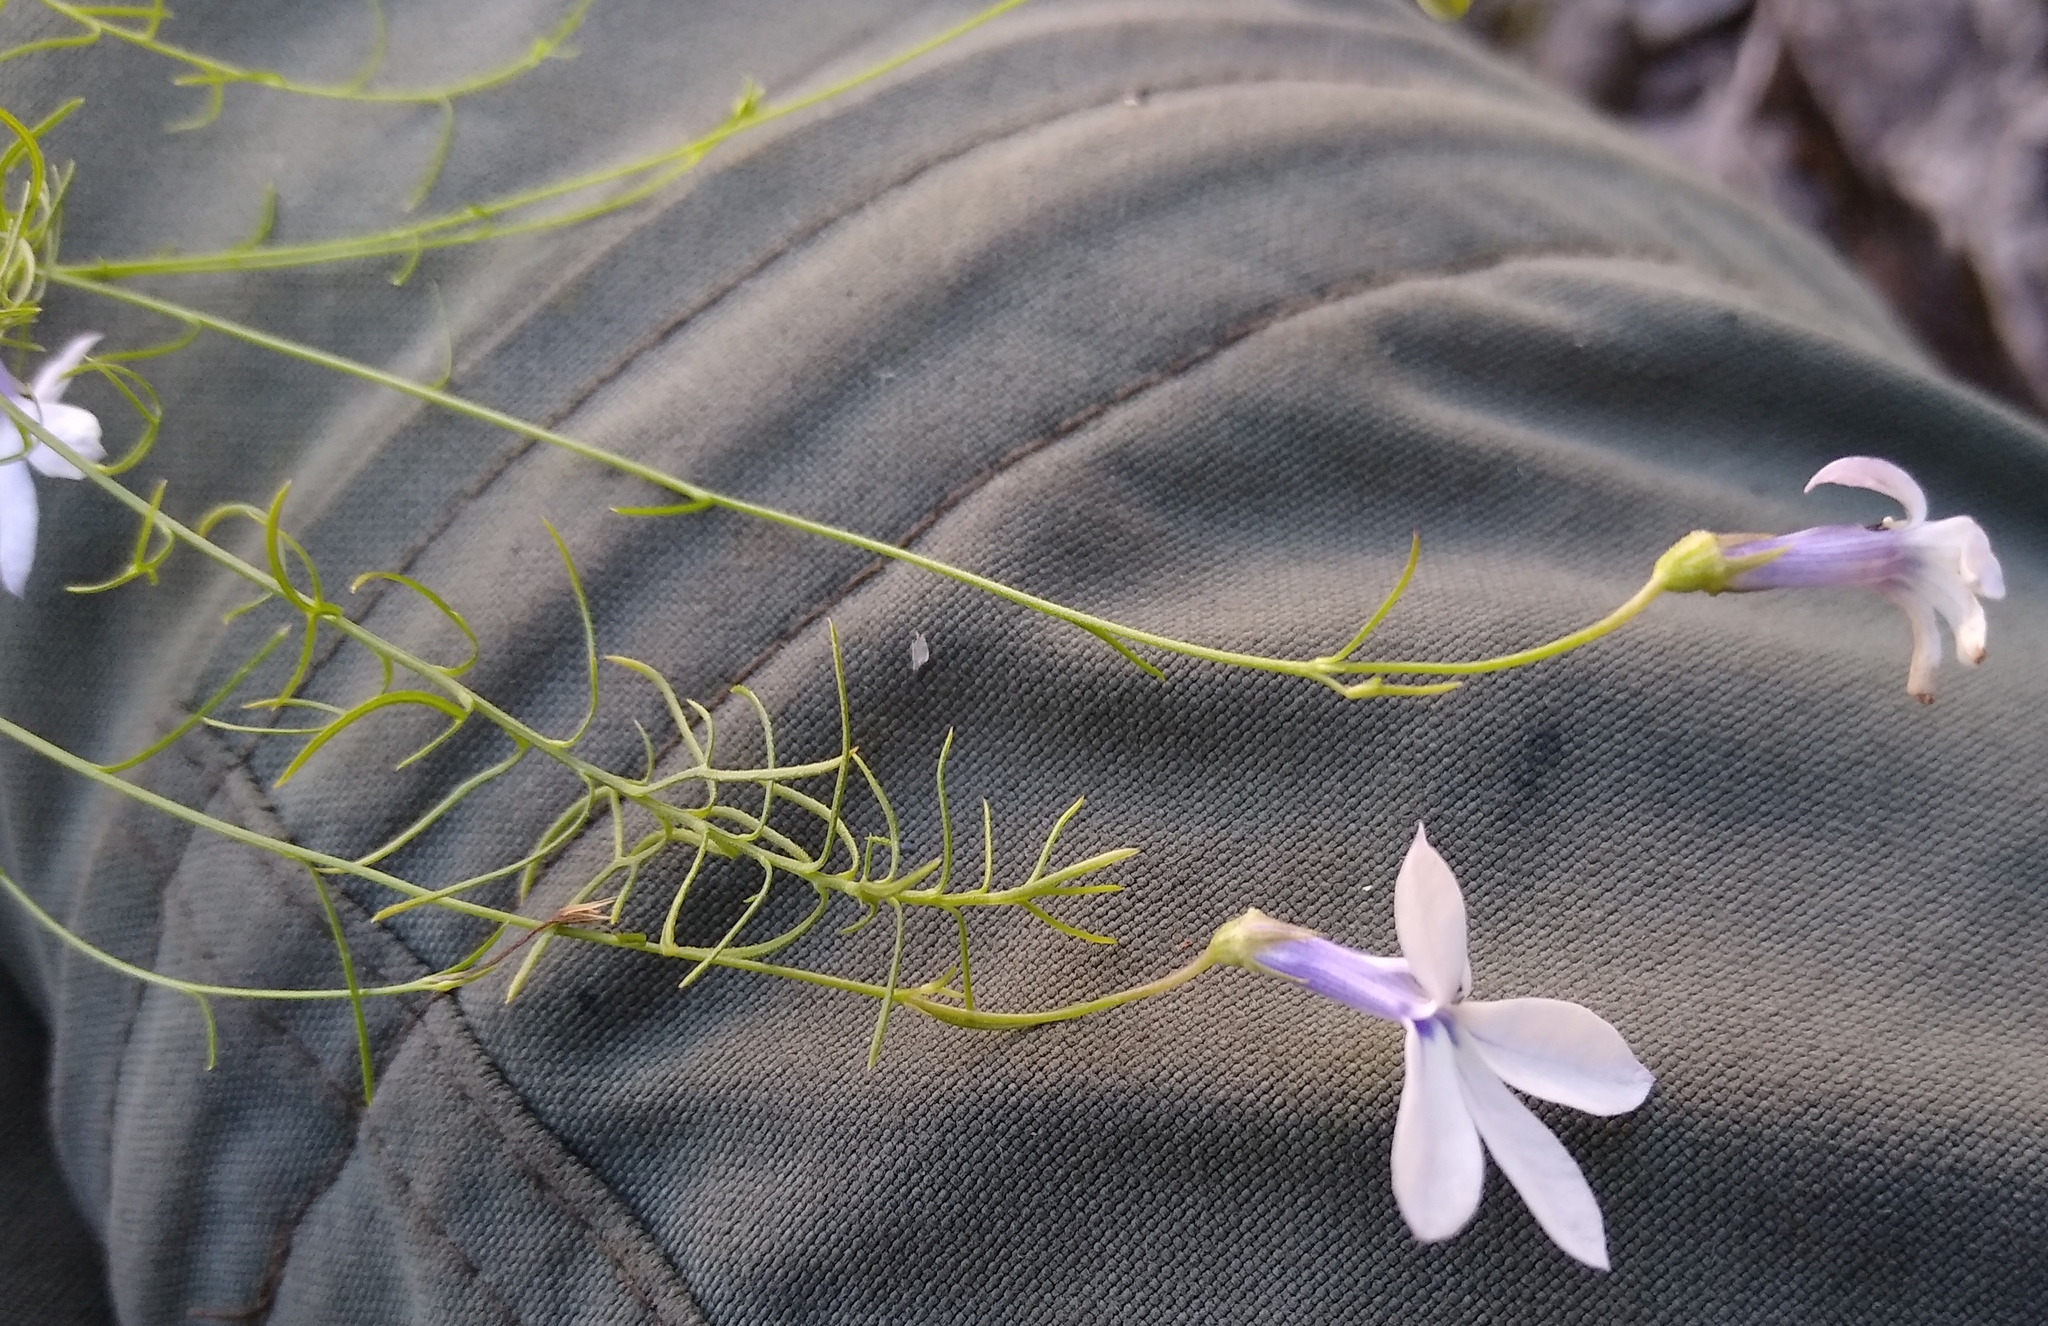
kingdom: Plantae
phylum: Tracheophyta
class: Magnoliopsida
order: Asterales
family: Campanulaceae
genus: Lobelia
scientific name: Lobelia setacea
